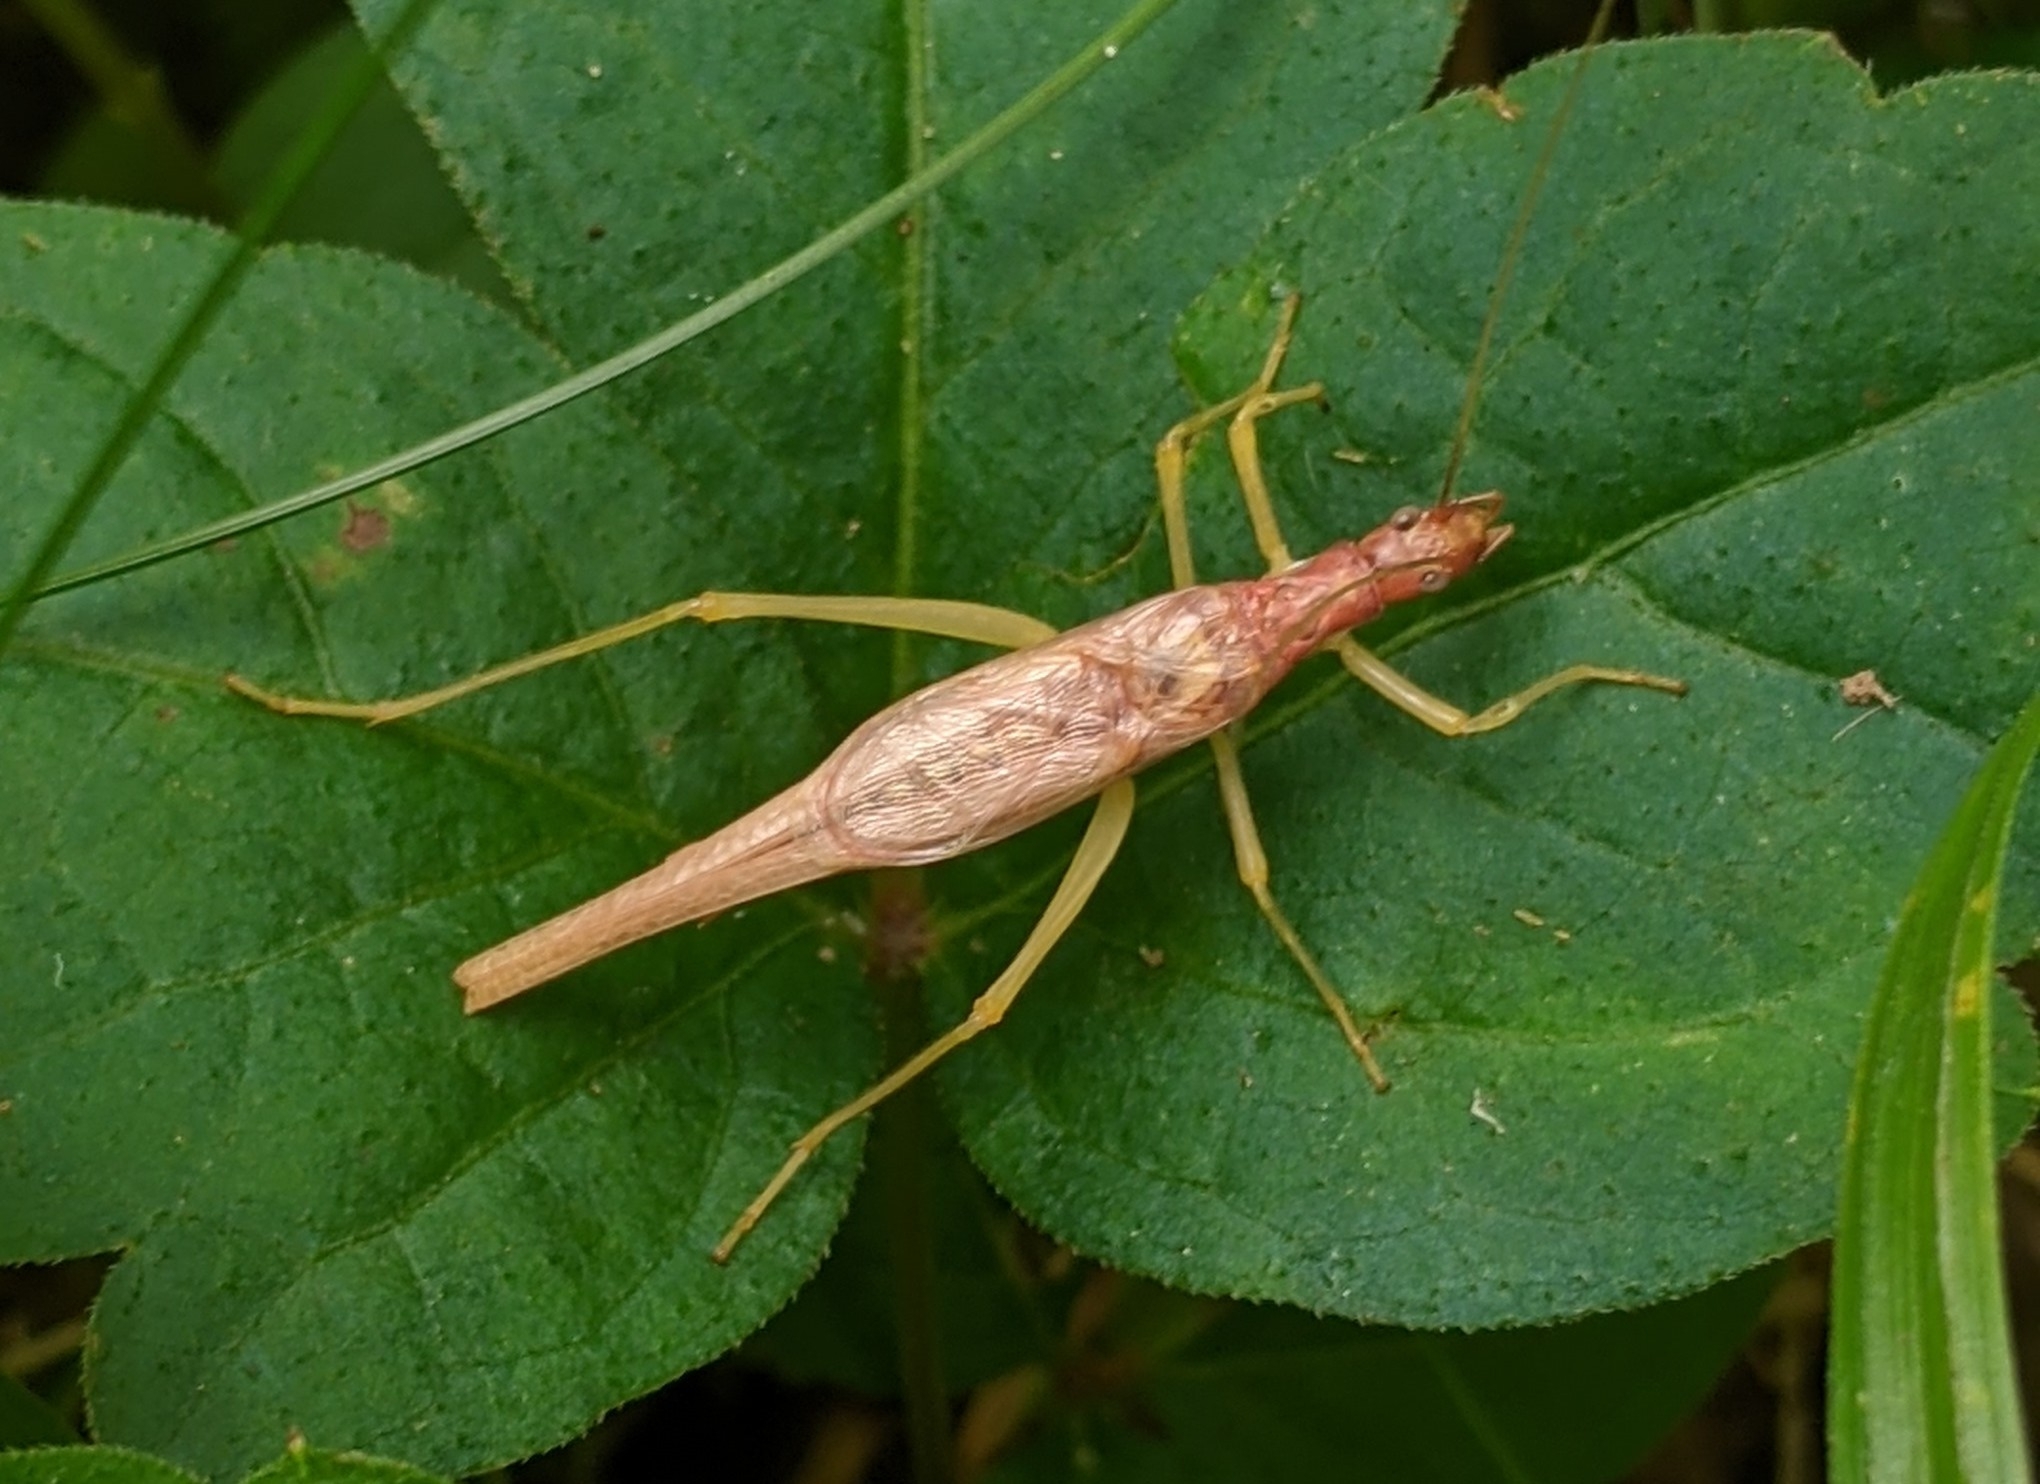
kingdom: Animalia
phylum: Arthropoda
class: Insecta
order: Orthoptera
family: Gryllidae
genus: Neoxabea
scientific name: Neoxabea bipunctata
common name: Two-spotted tree cricket
